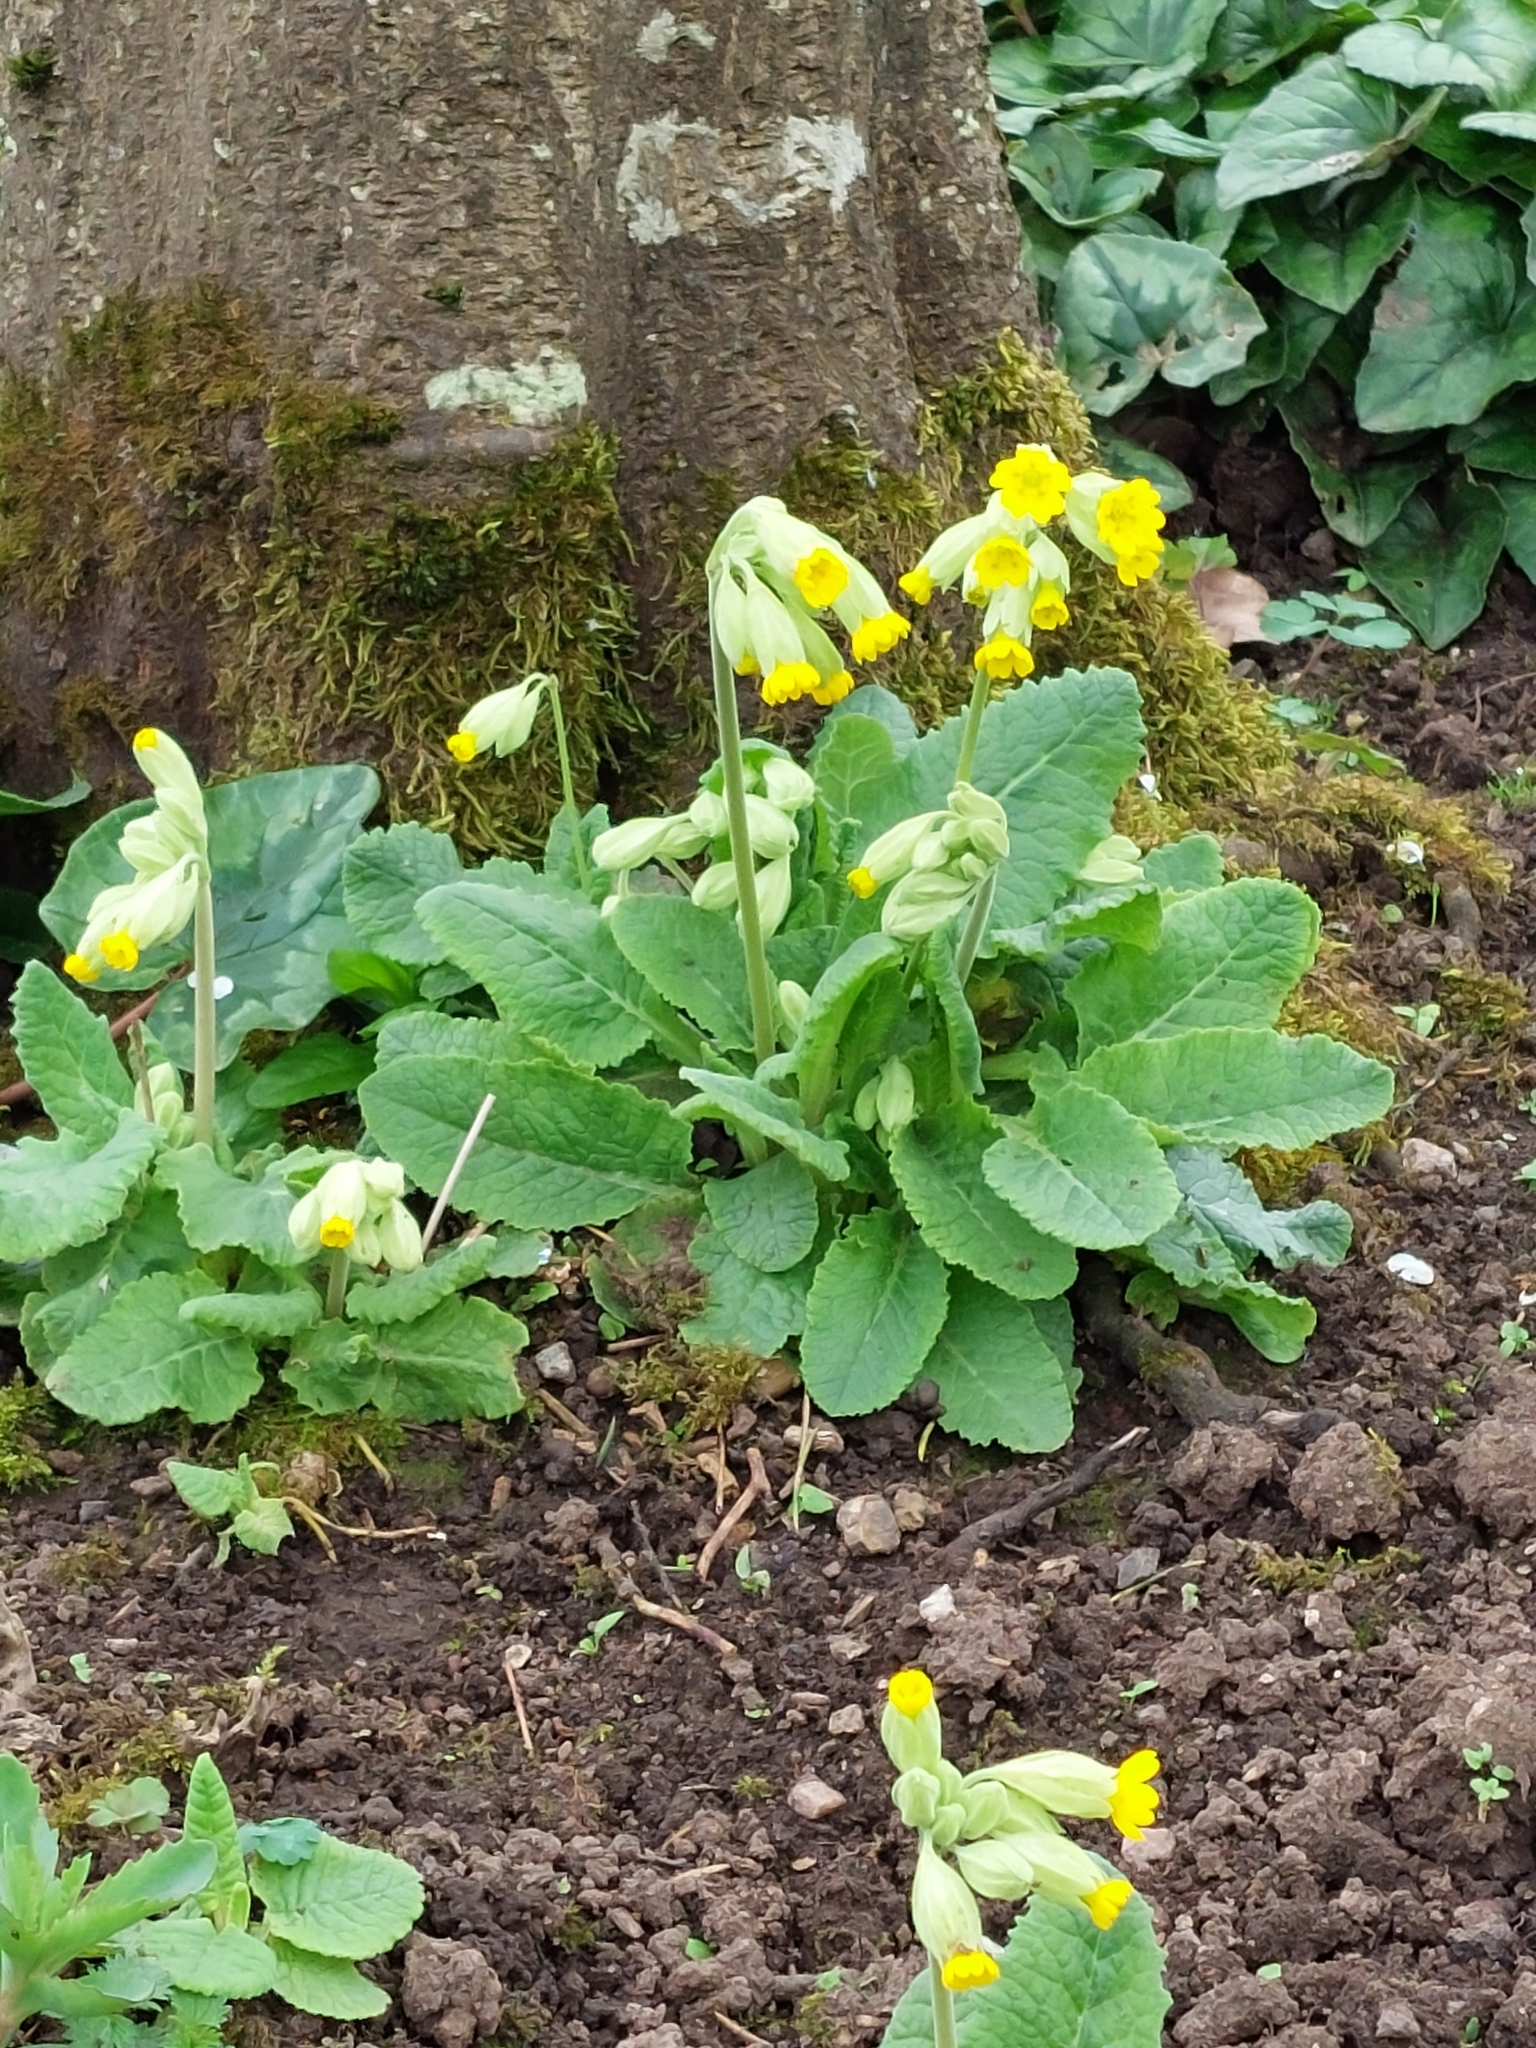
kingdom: Plantae
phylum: Tracheophyta
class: Magnoliopsida
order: Ericales
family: Primulaceae
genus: Primula
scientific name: Primula veris
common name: Cowslip
